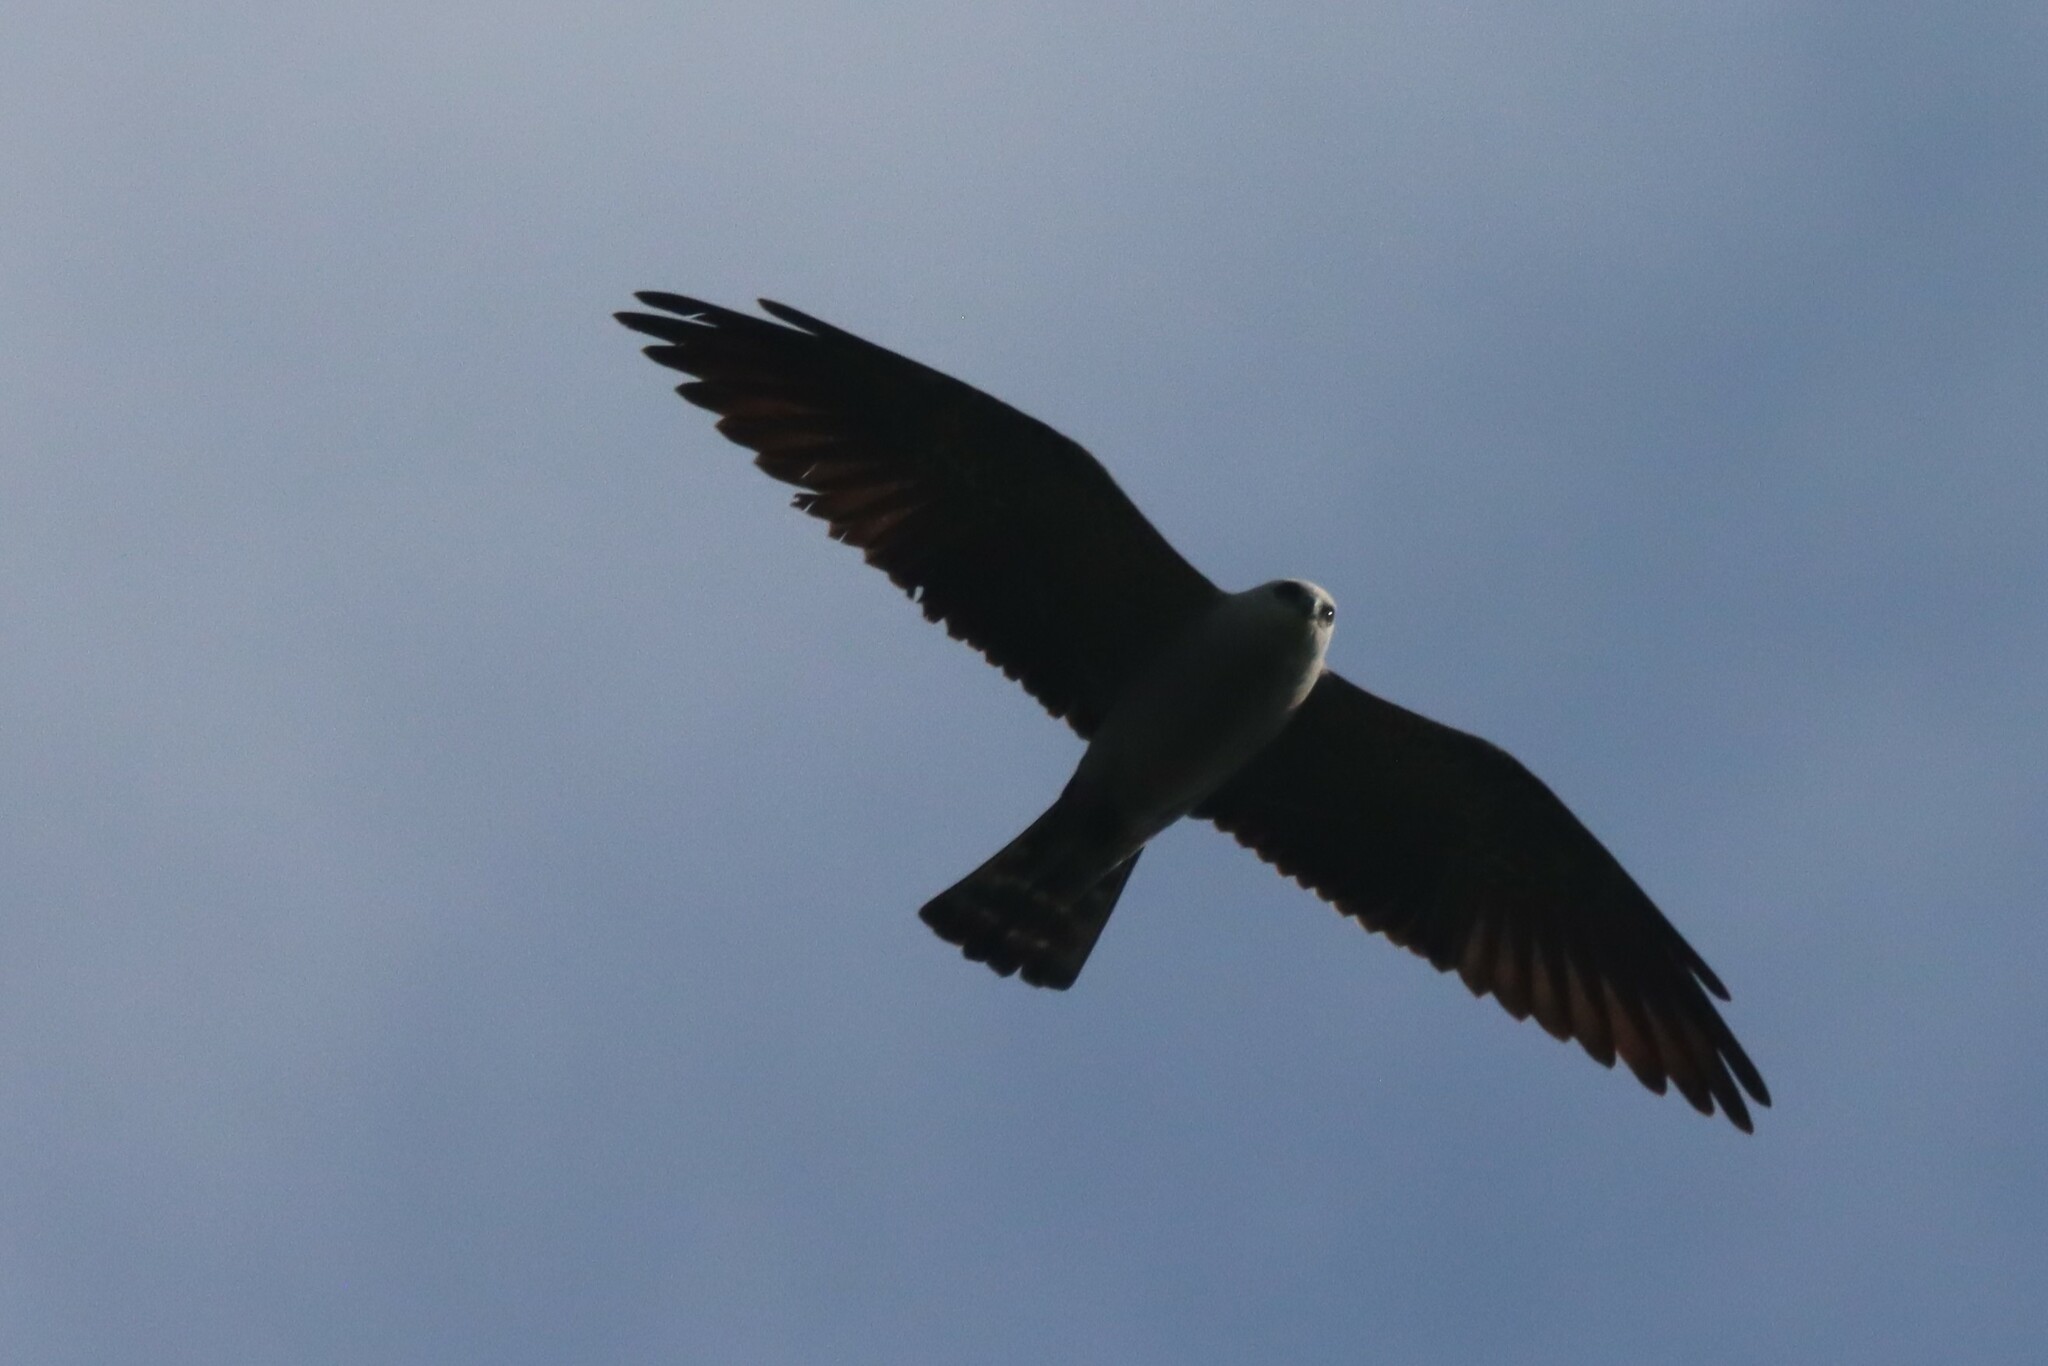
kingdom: Animalia
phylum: Chordata
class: Aves
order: Accipitriformes
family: Accipitridae
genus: Ictinia
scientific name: Ictinia mississippiensis
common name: Mississippi kite
